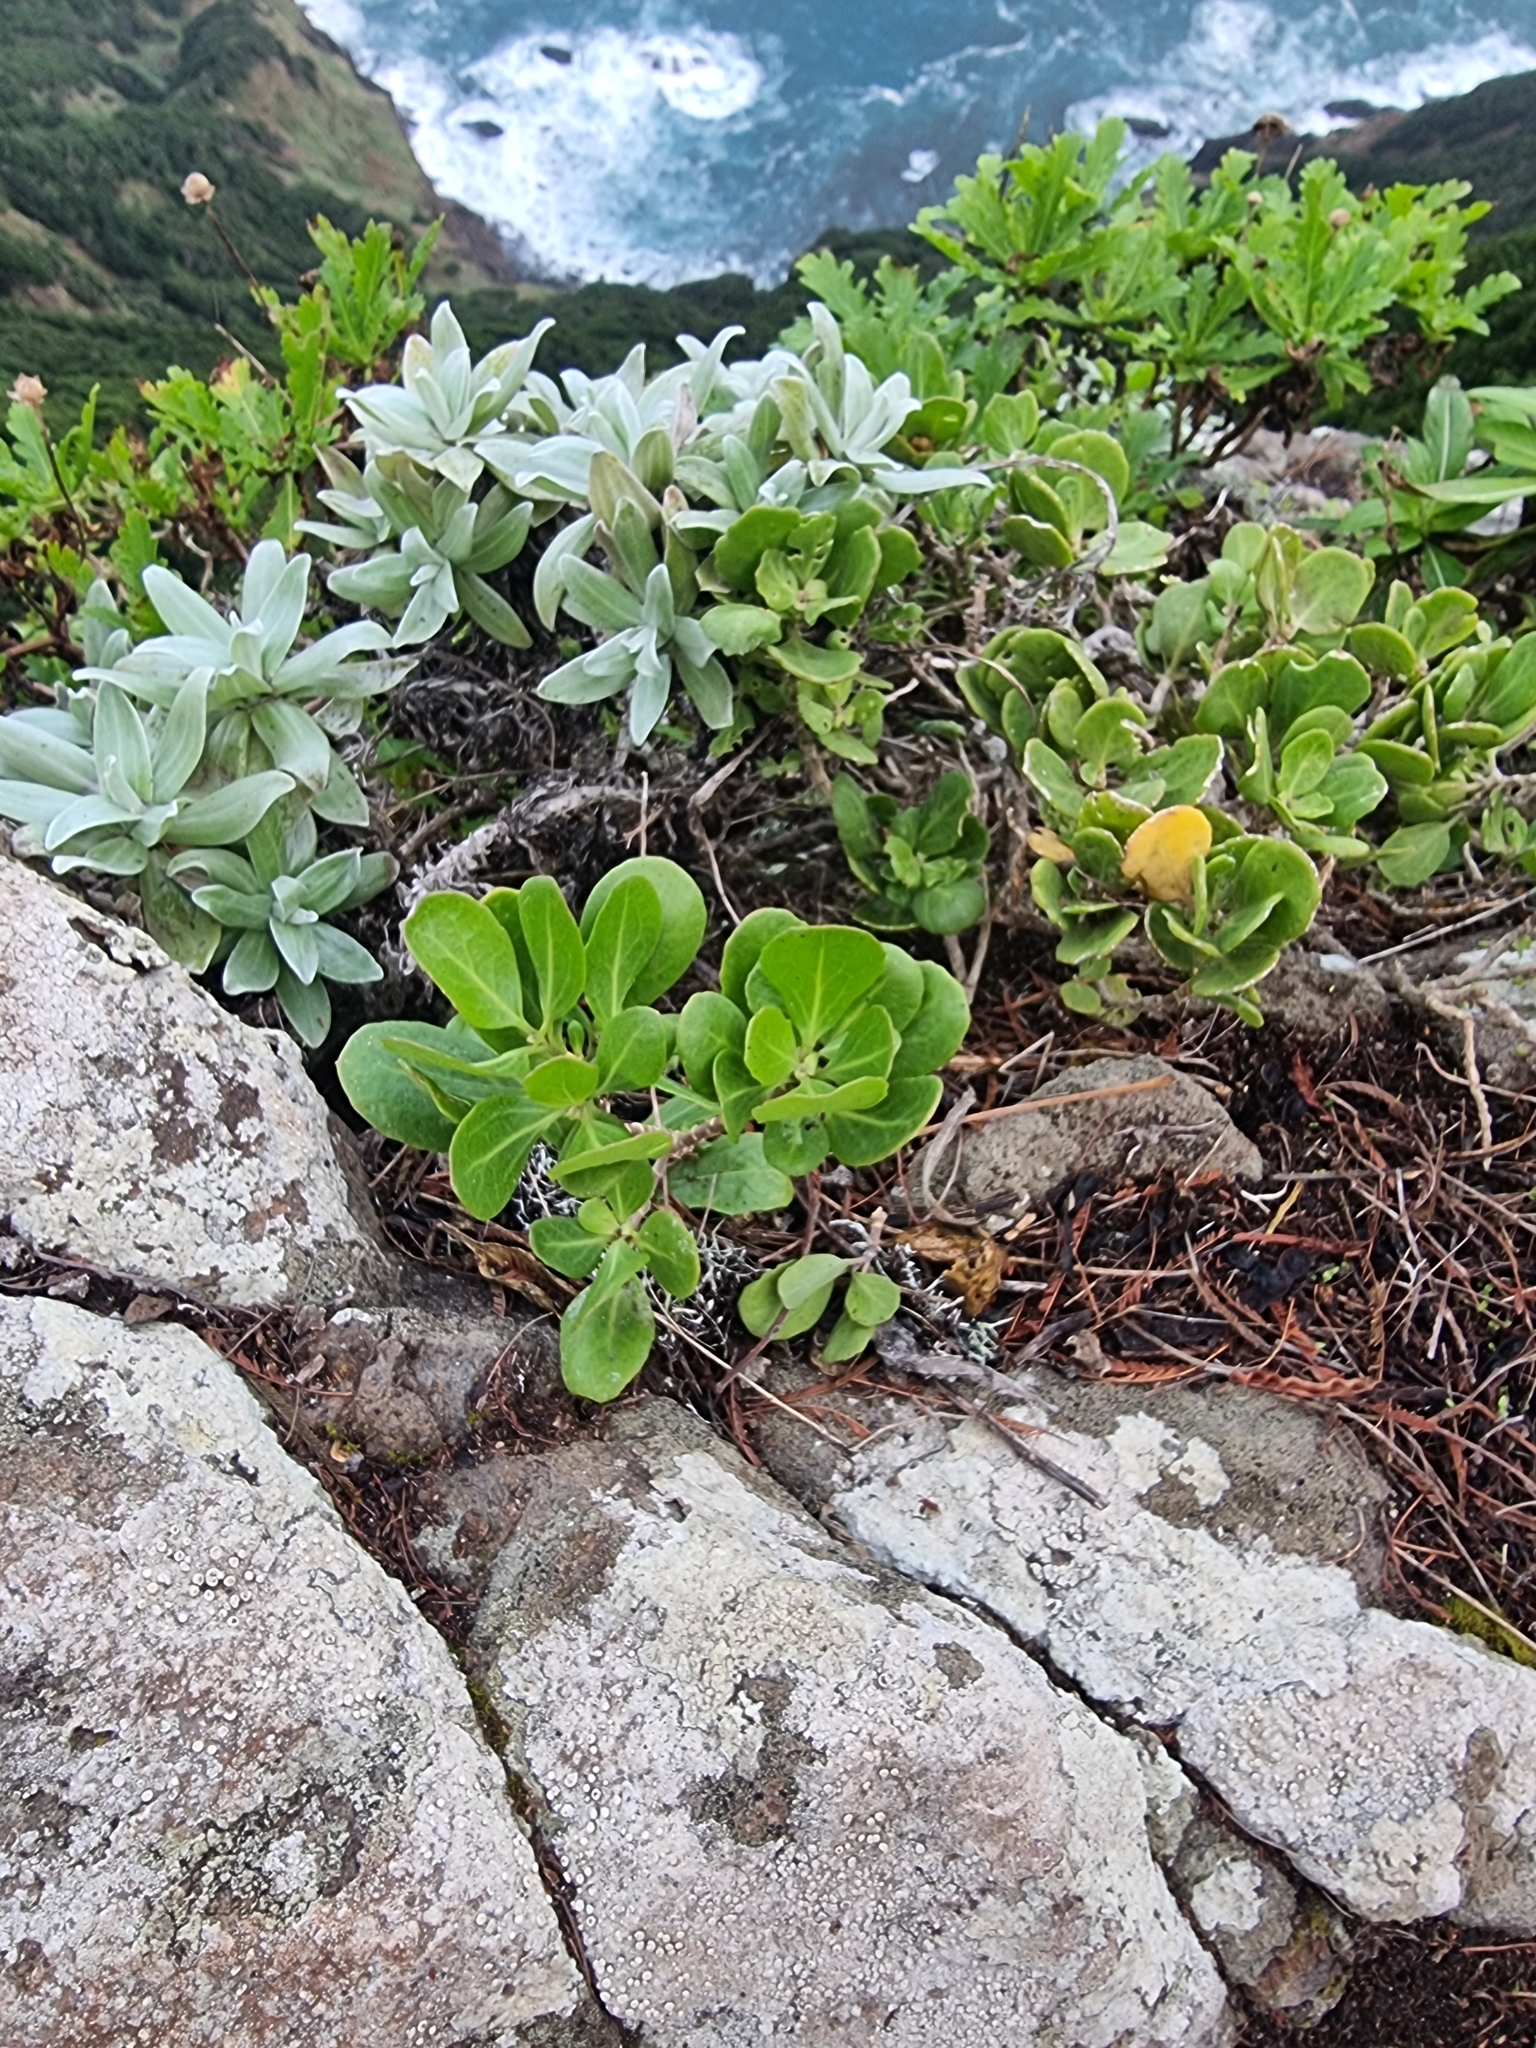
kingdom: Plantae
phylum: Tracheophyta
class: Magnoliopsida
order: Asterales
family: Asteraceae
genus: Helichrysum
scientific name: Helichrysum devium
